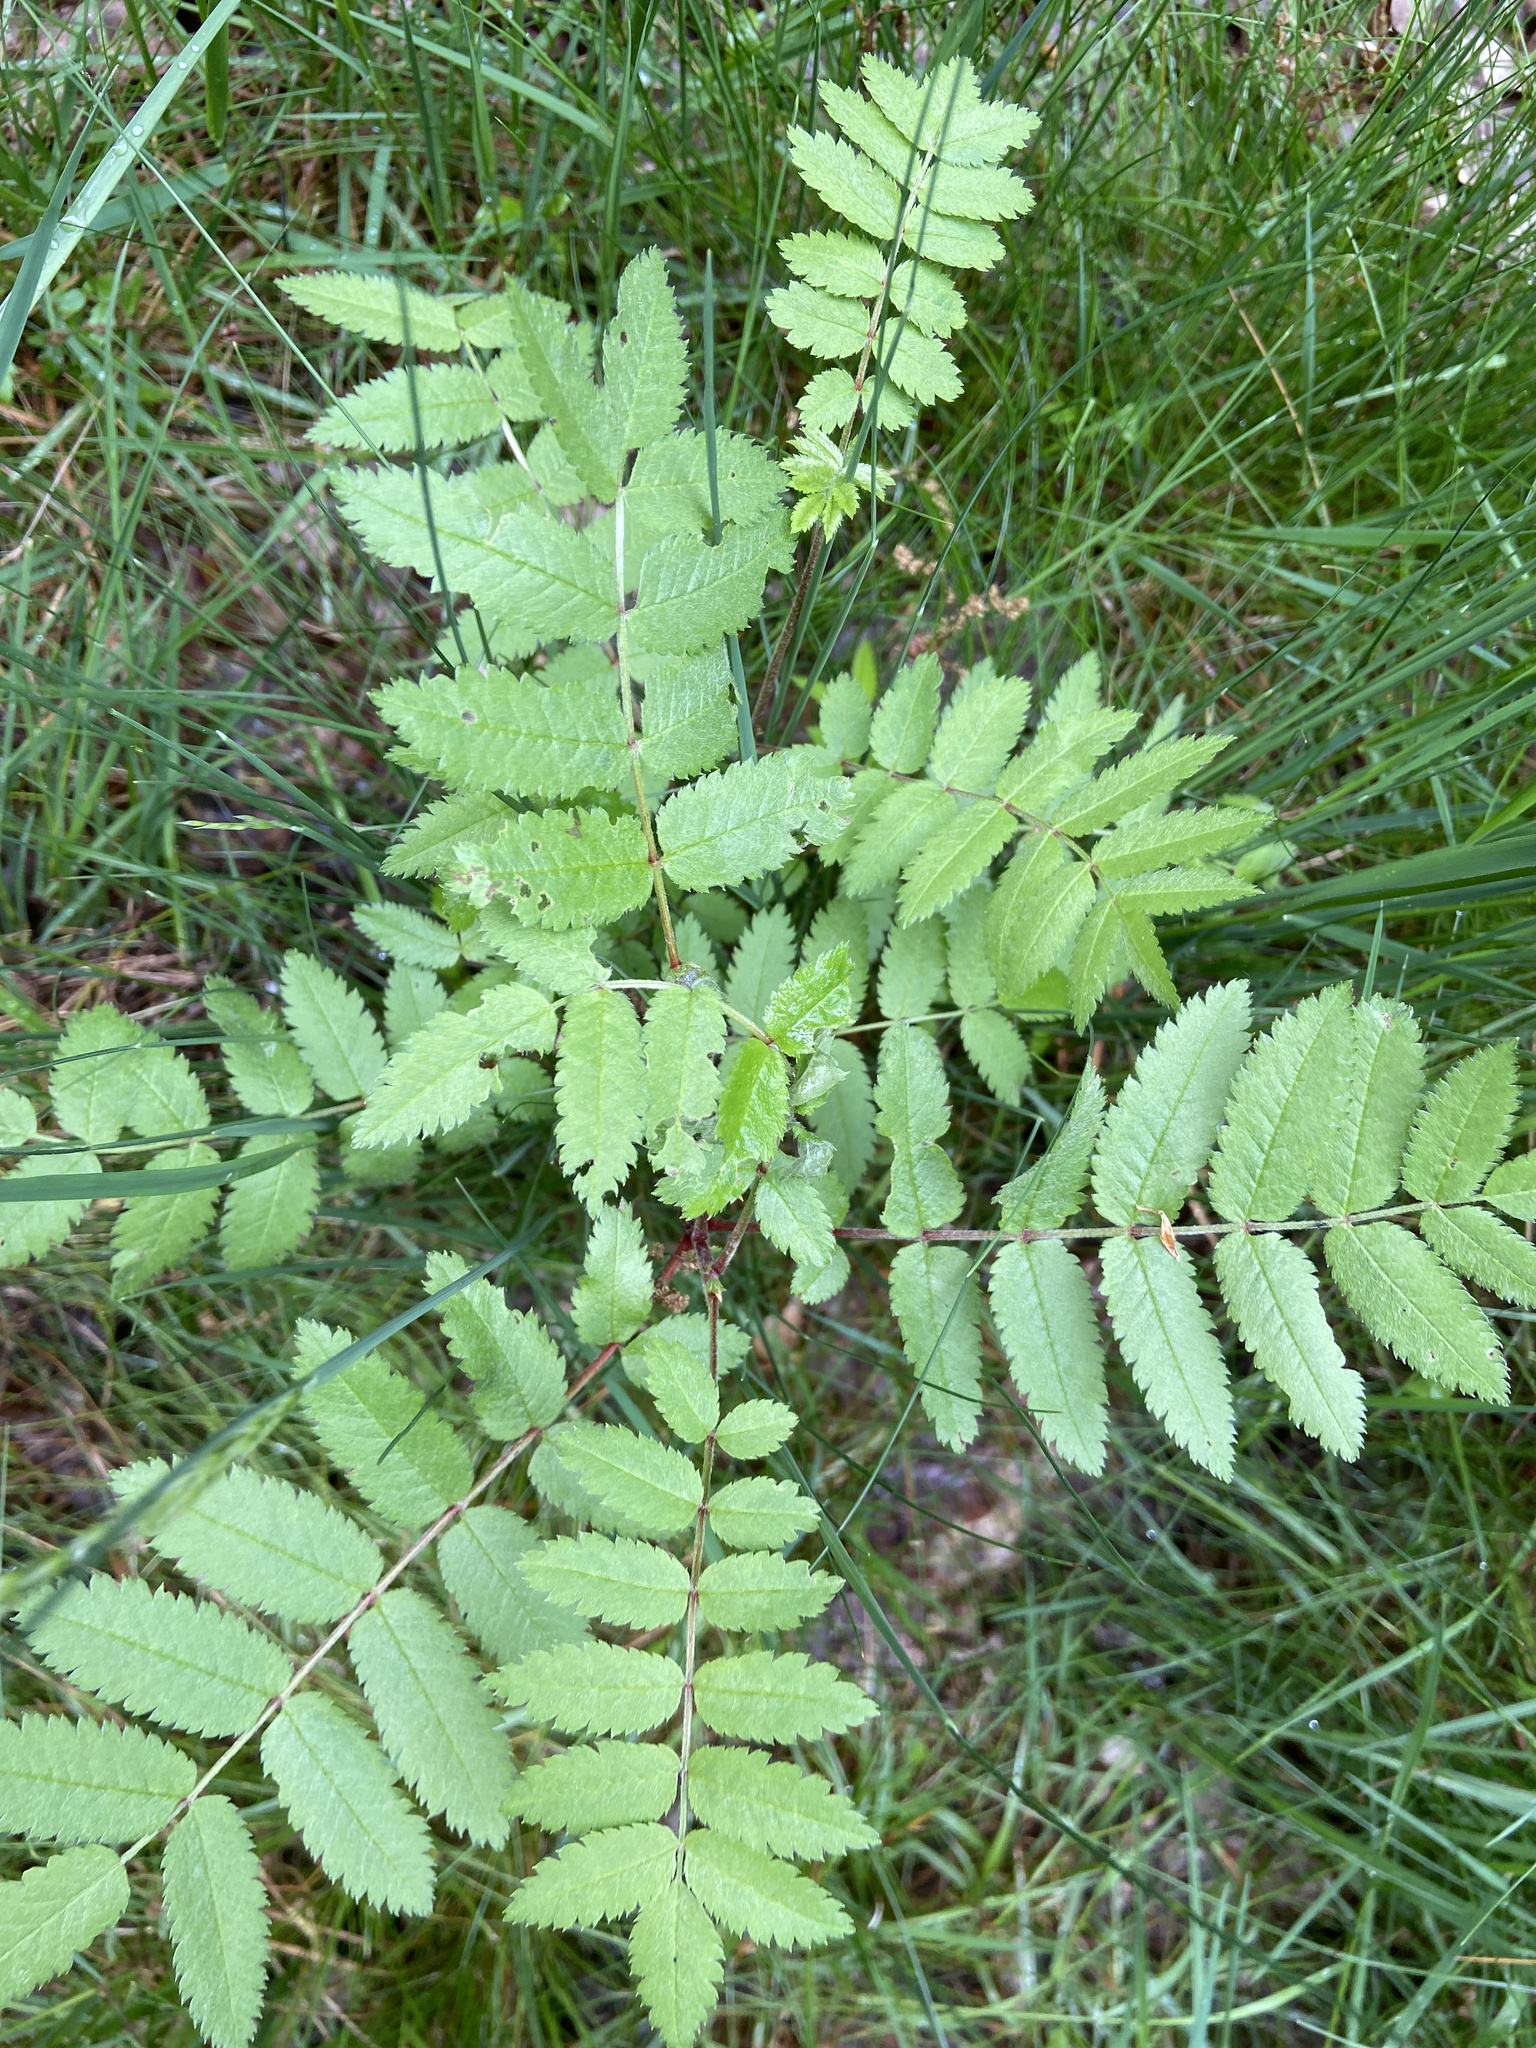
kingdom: Plantae
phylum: Tracheophyta
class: Magnoliopsida
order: Rosales
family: Rosaceae
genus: Sorbus
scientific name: Sorbus aucuparia
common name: Rowan
